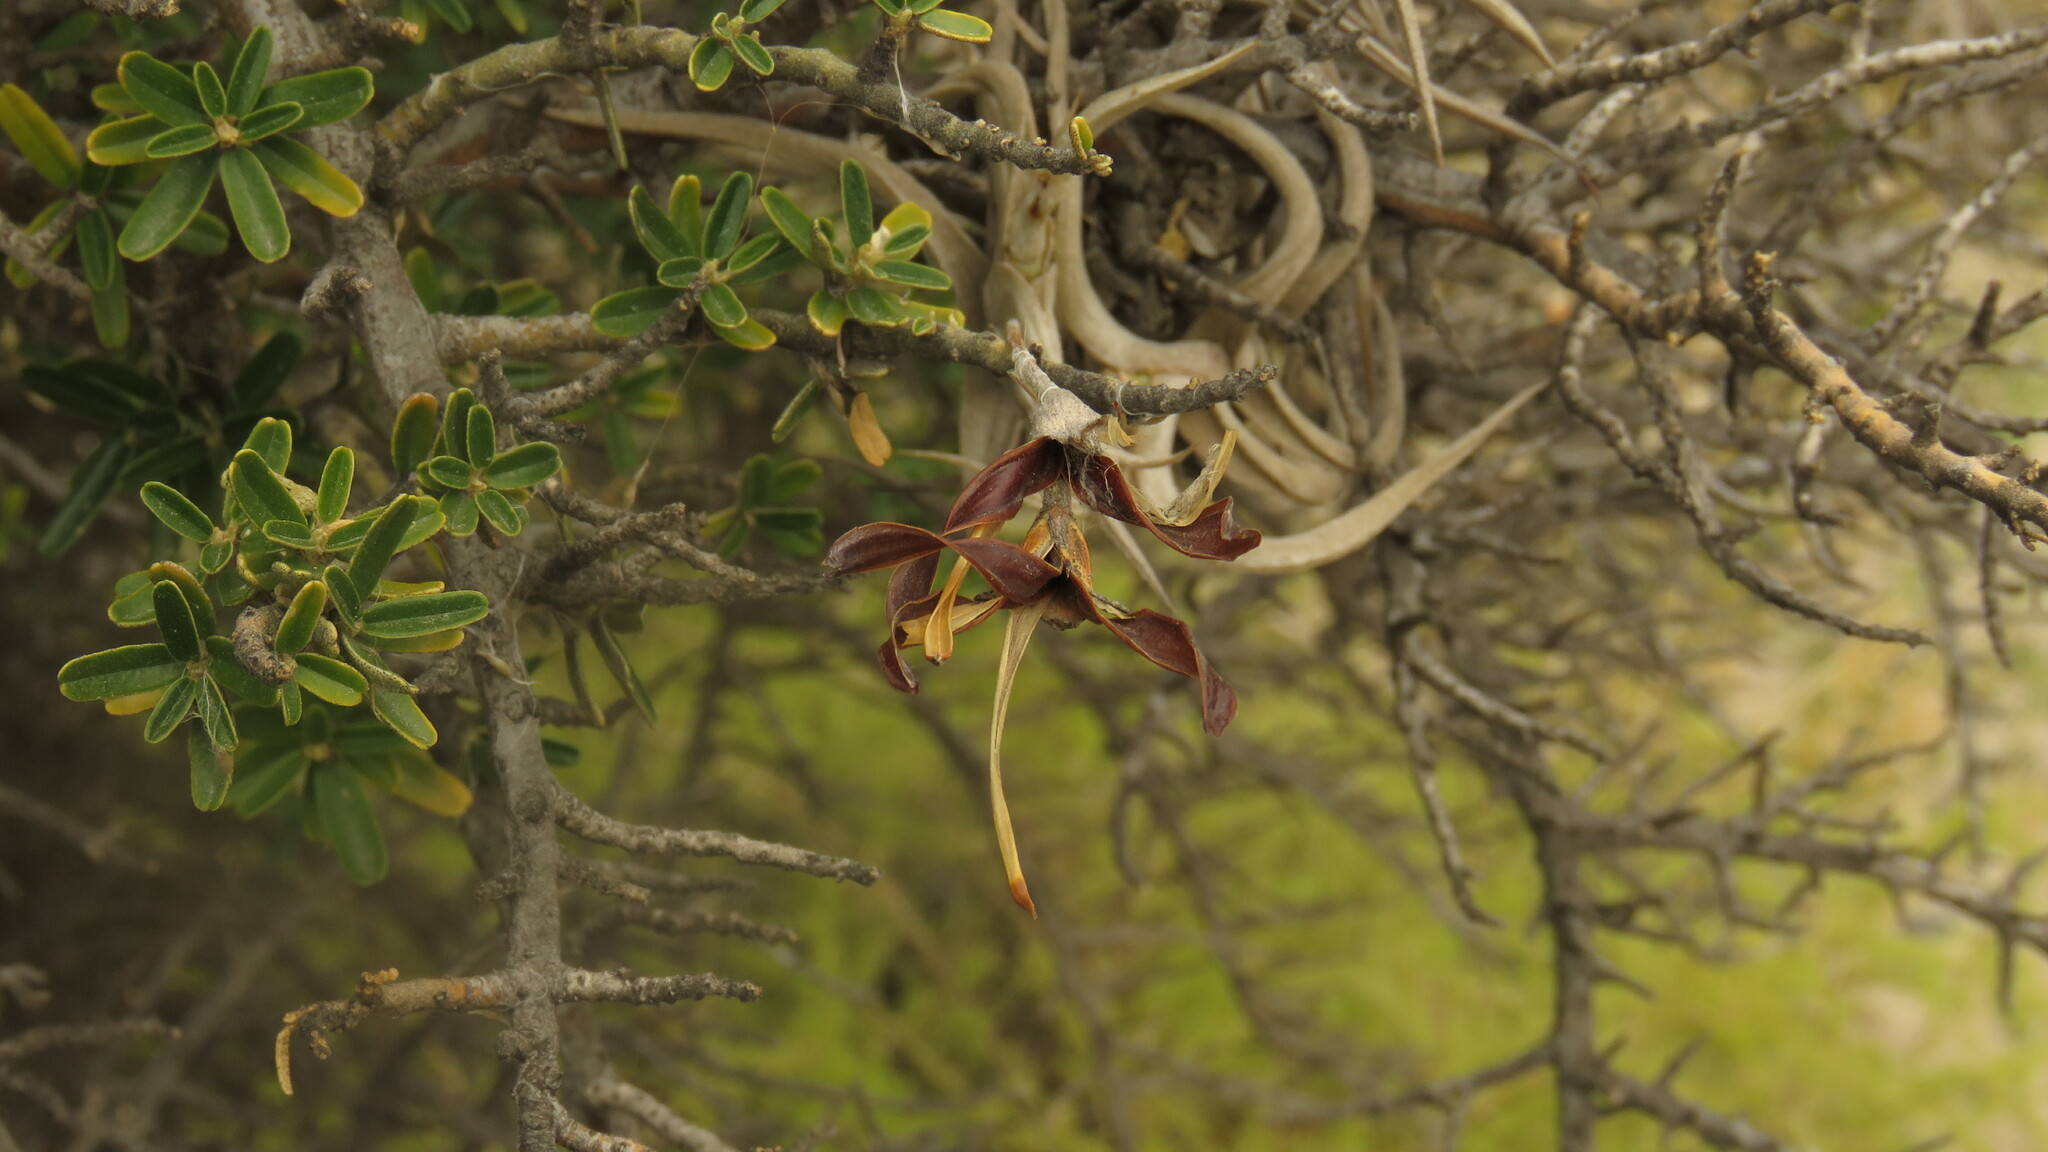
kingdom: Plantae
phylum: Tracheophyta
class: Liliopsida
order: Poales
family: Bromeliaceae
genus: Tillandsia
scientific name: Tillandsia gilliesii
